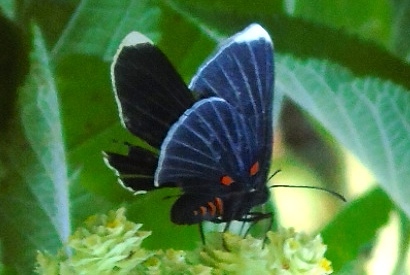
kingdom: Animalia
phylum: Arthropoda
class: Insecta
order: Lepidoptera
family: Lycaenidae
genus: Melanis
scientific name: Melanis
